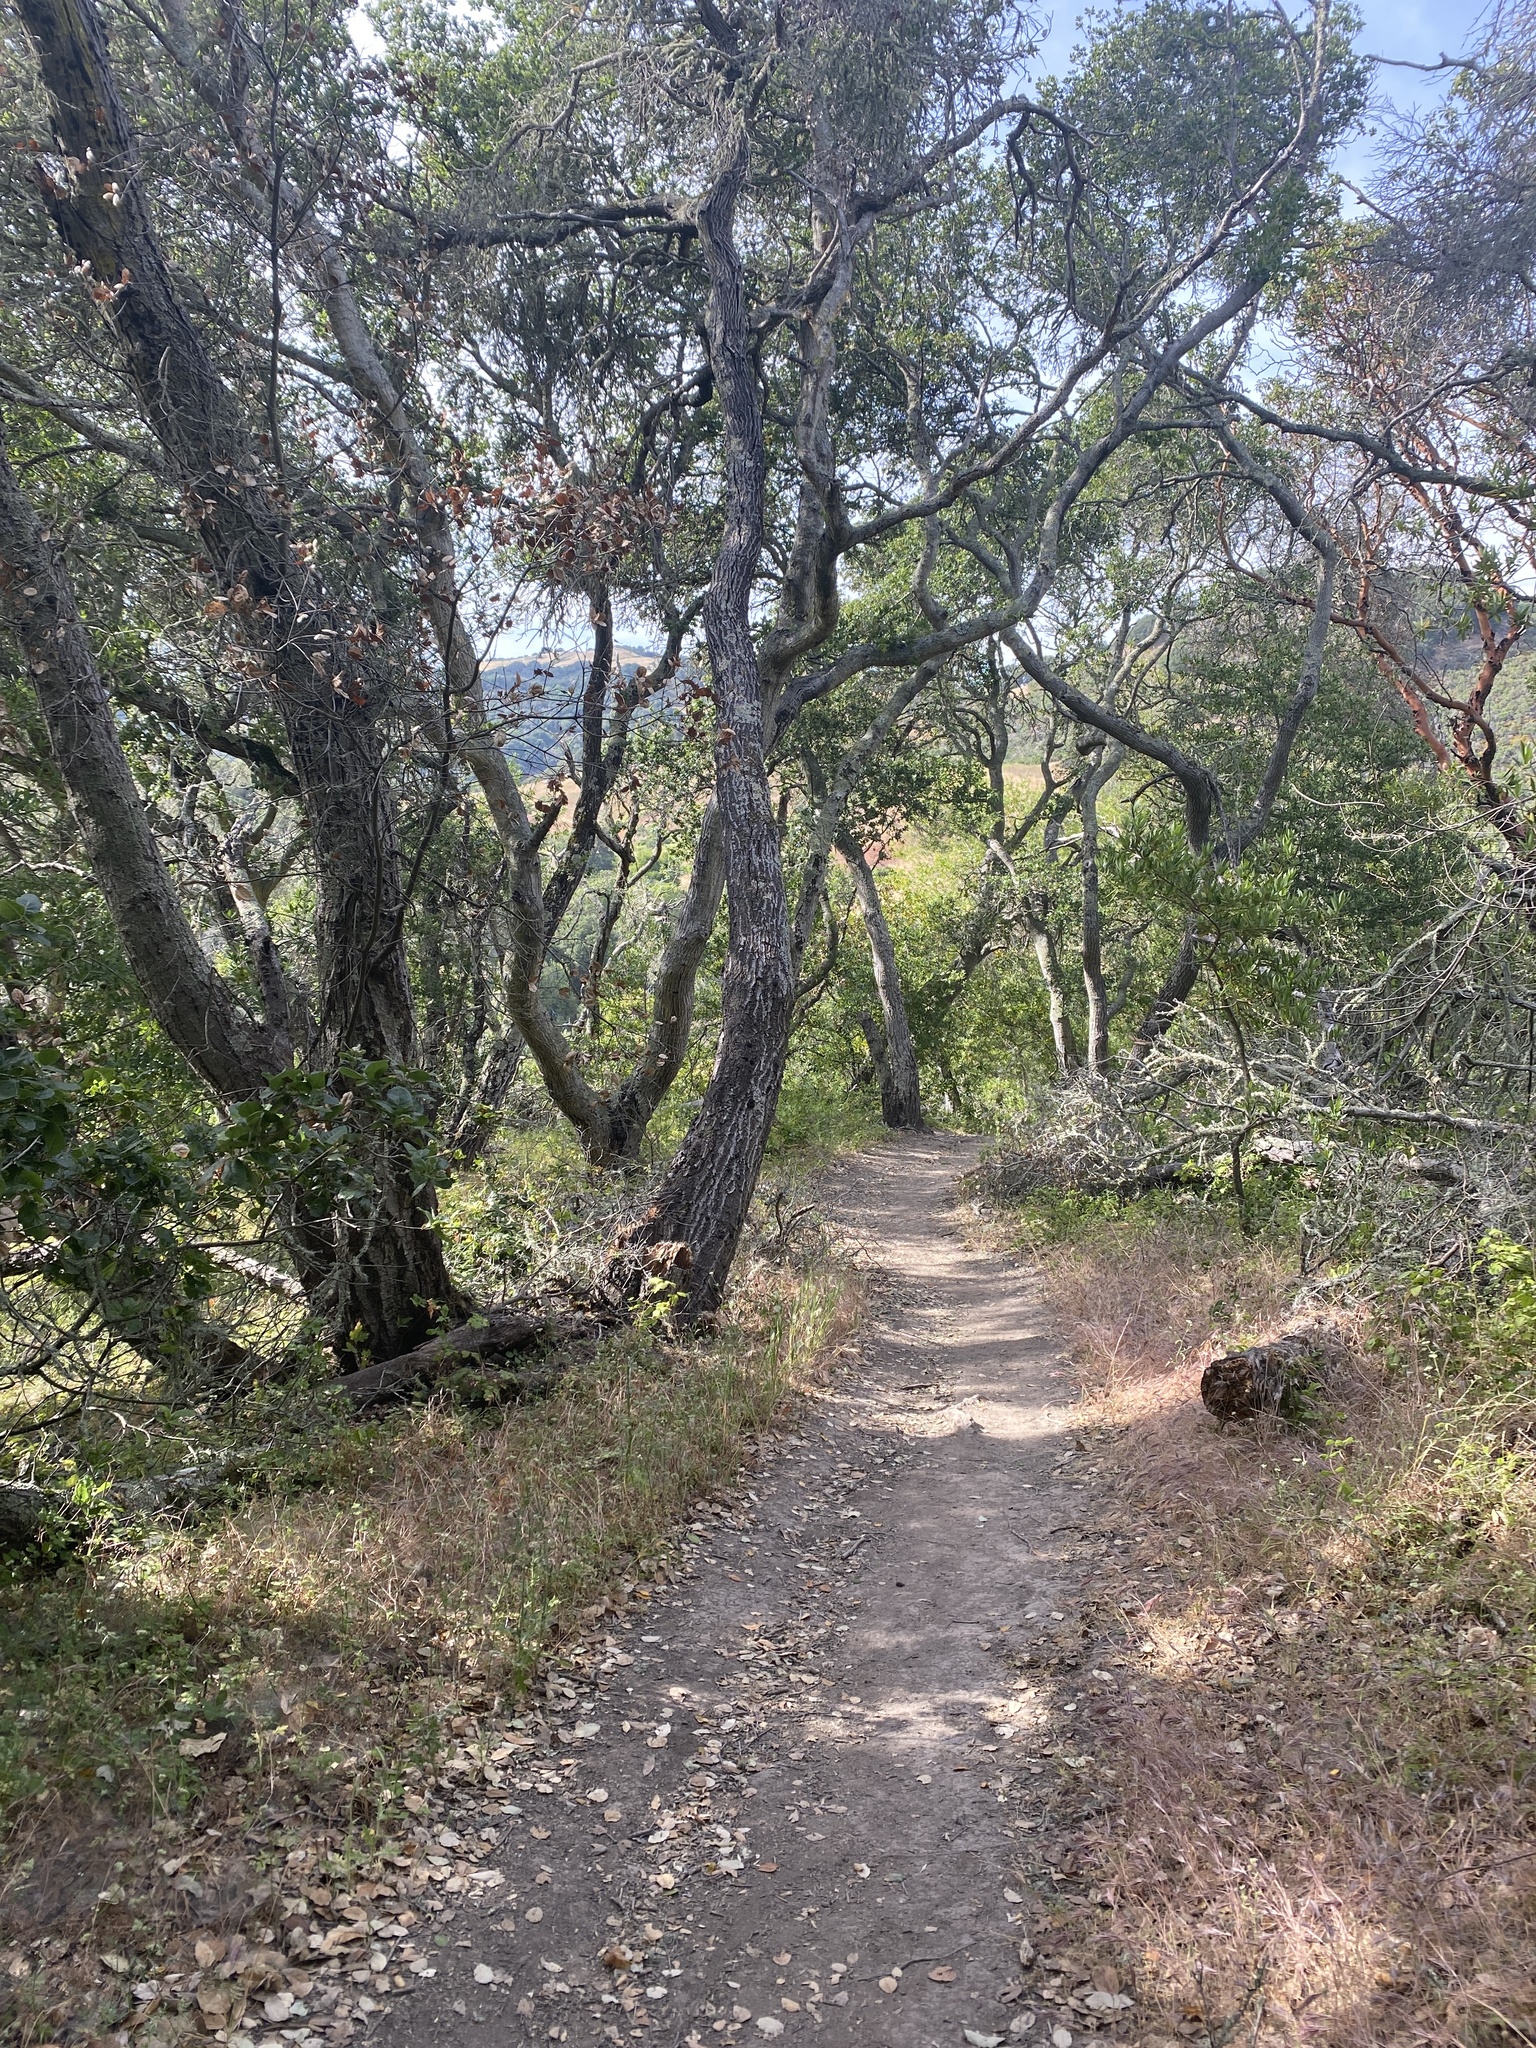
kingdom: Plantae
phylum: Tracheophyta
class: Magnoliopsida
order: Fagales
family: Fagaceae
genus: Quercus
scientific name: Quercus agrifolia
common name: California live oak
